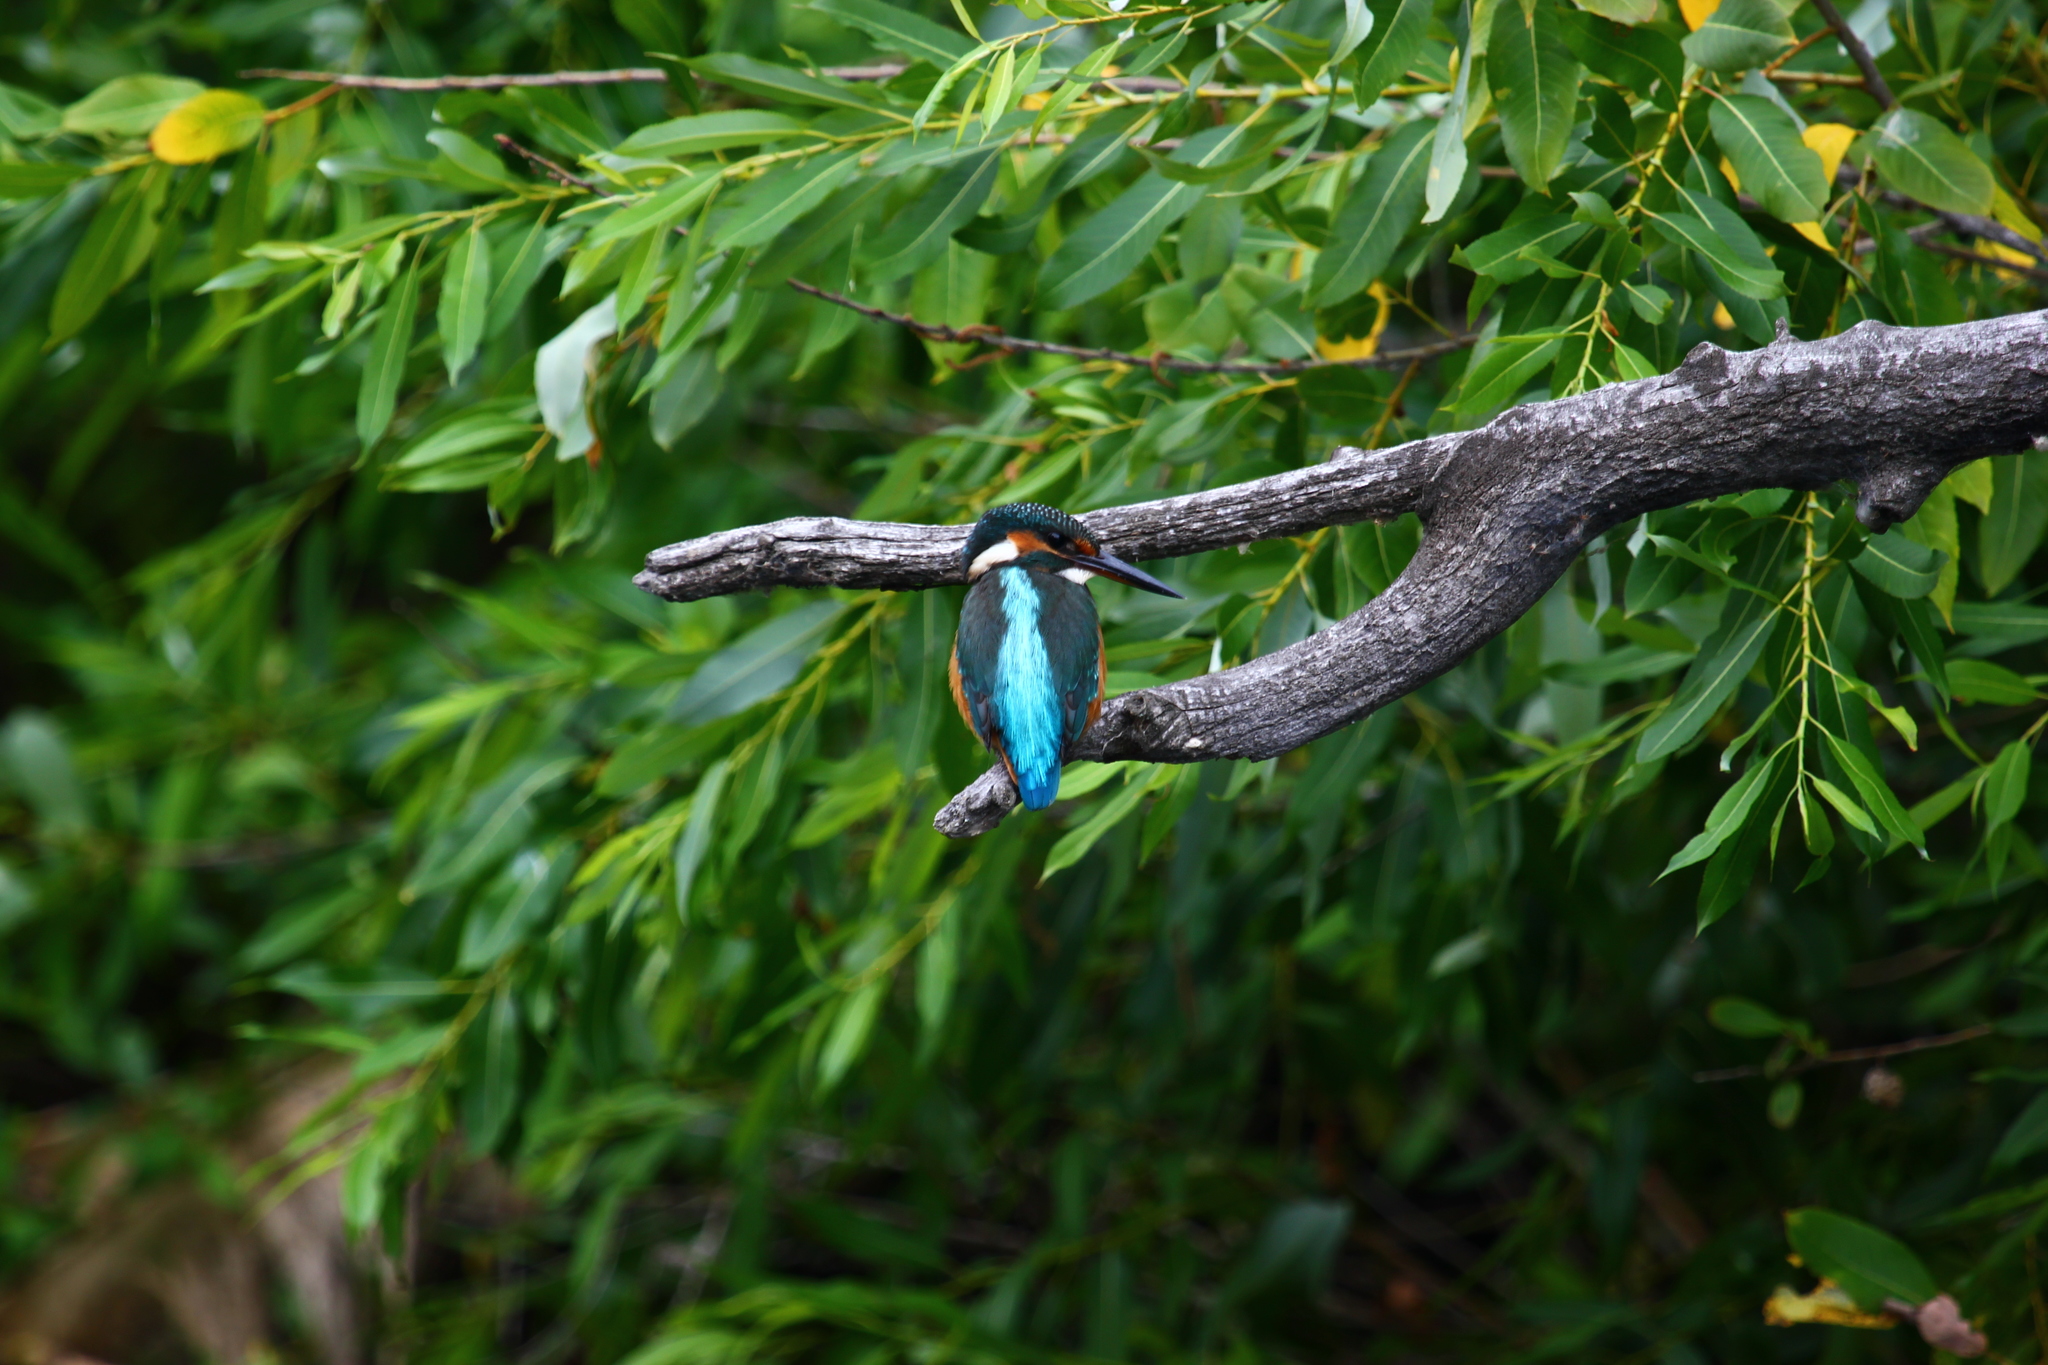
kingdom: Animalia
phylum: Chordata
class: Aves
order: Coraciiformes
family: Alcedinidae
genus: Alcedo
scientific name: Alcedo atthis
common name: Common kingfisher
